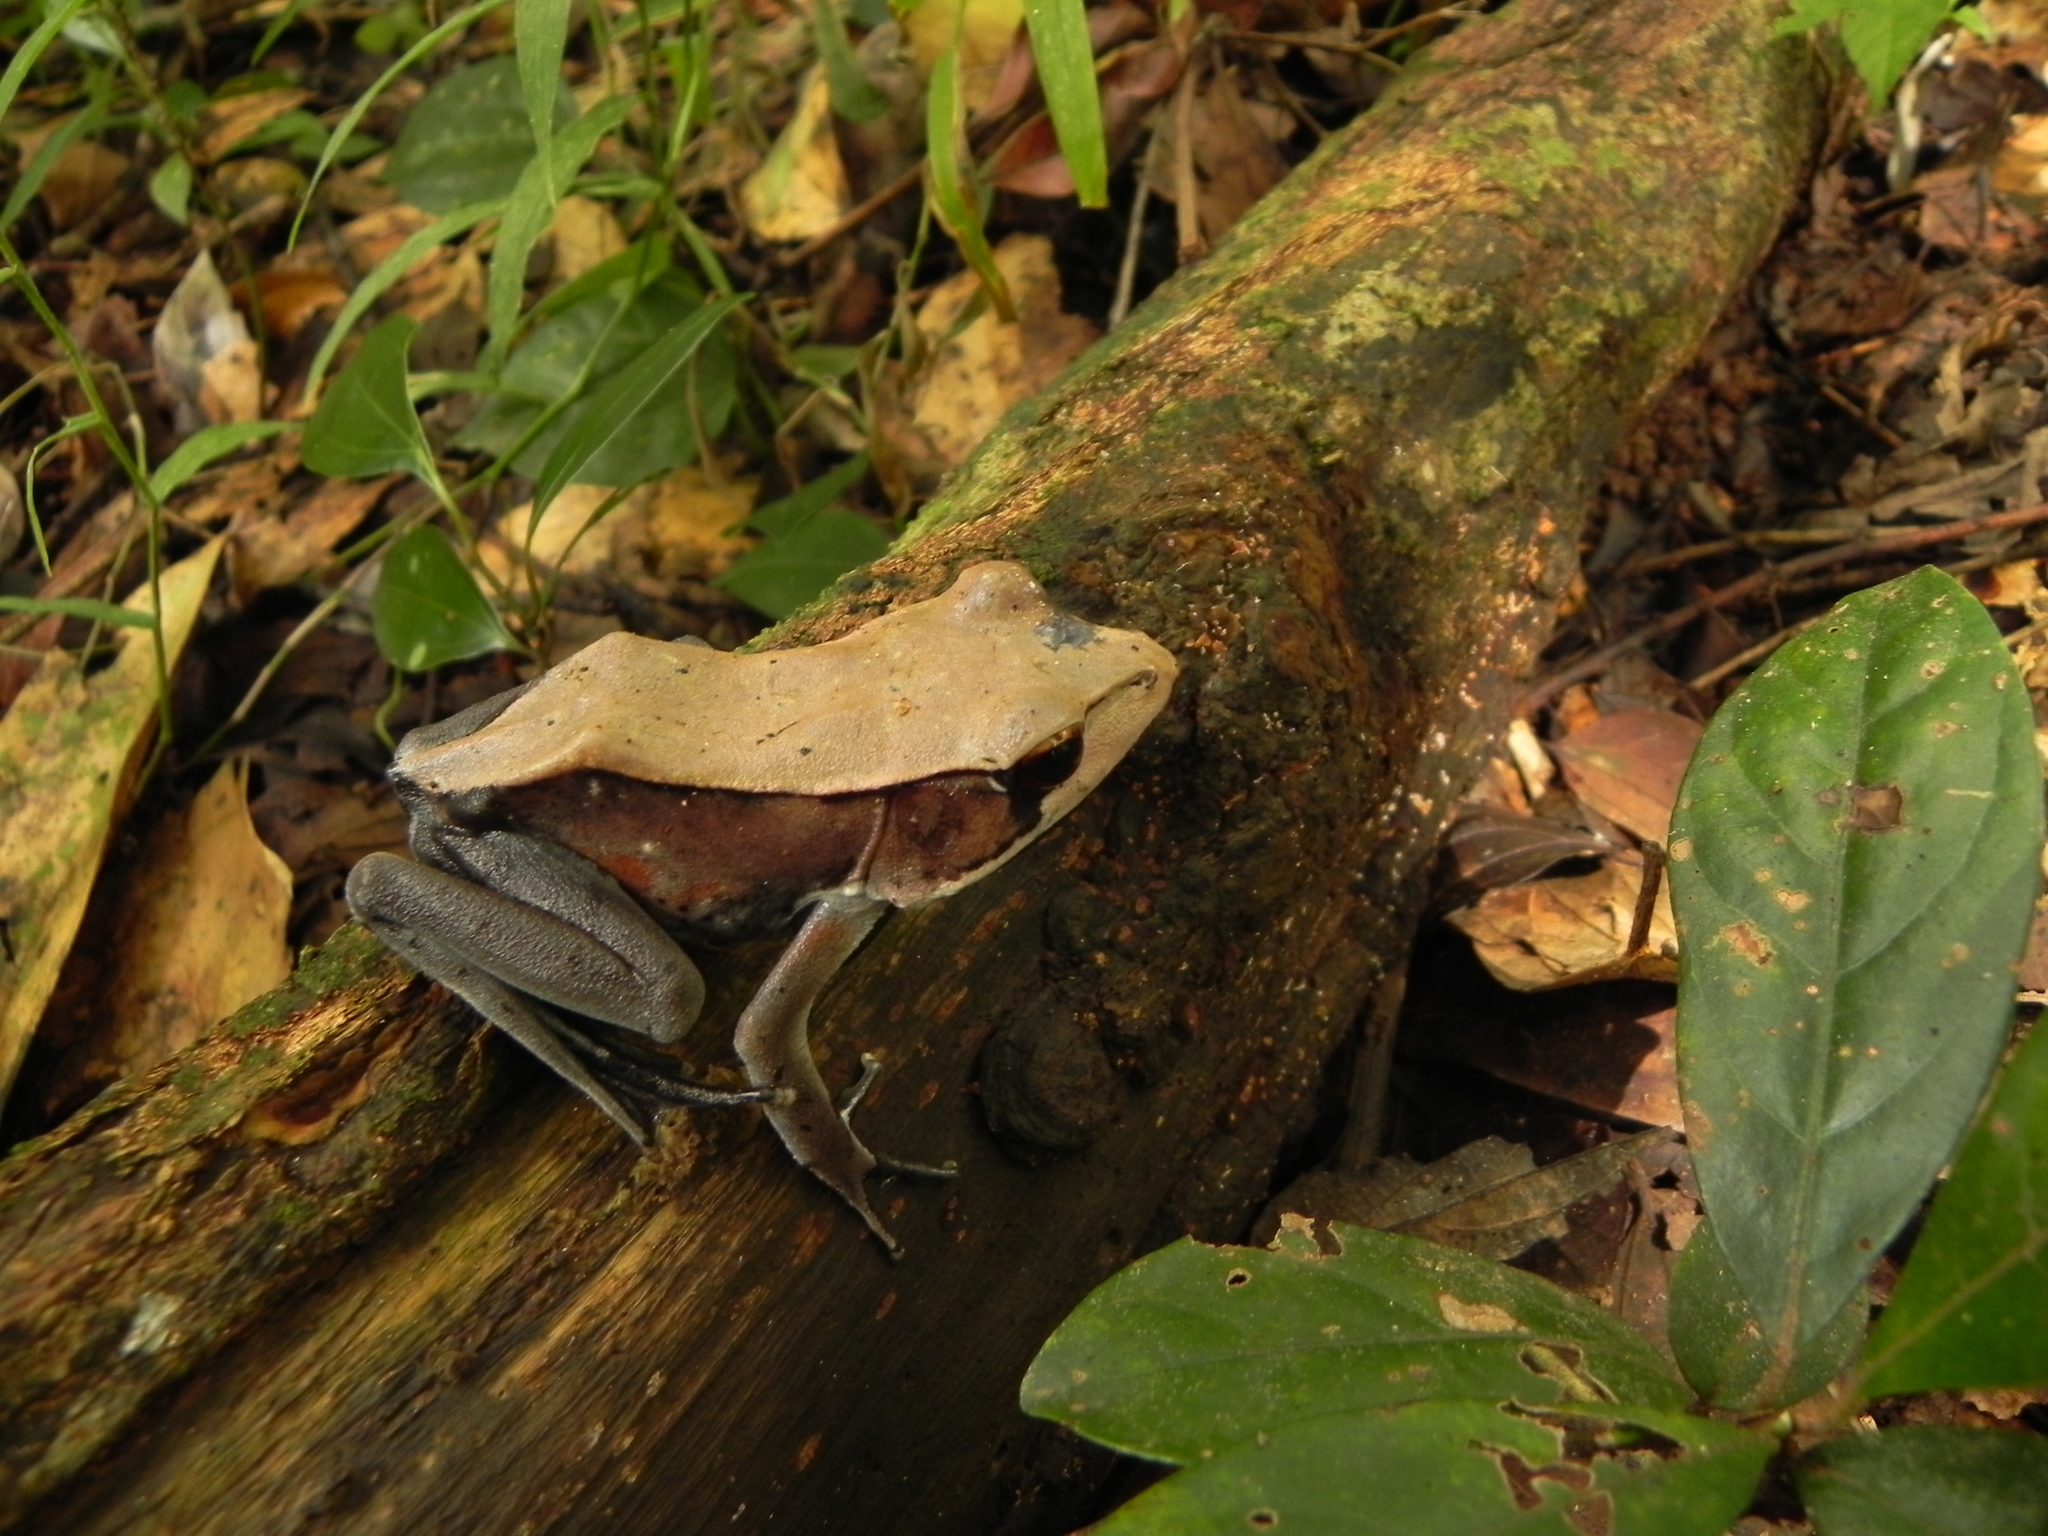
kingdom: Animalia
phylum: Chordata
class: Amphibia
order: Anura
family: Ranidae
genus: Clinotarsus
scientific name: Clinotarsus curtipes
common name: Bicoloured frog
